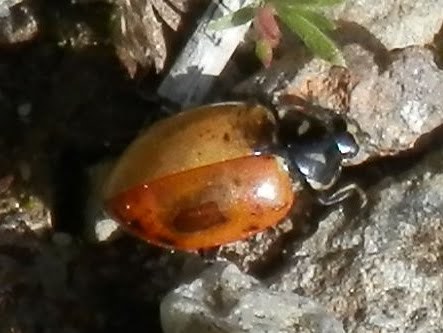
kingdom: Animalia
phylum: Arthropoda
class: Insecta
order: Coleoptera
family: Coccinellidae
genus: Hippodamia
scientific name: Hippodamia convergens
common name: Convergent lady beetle
